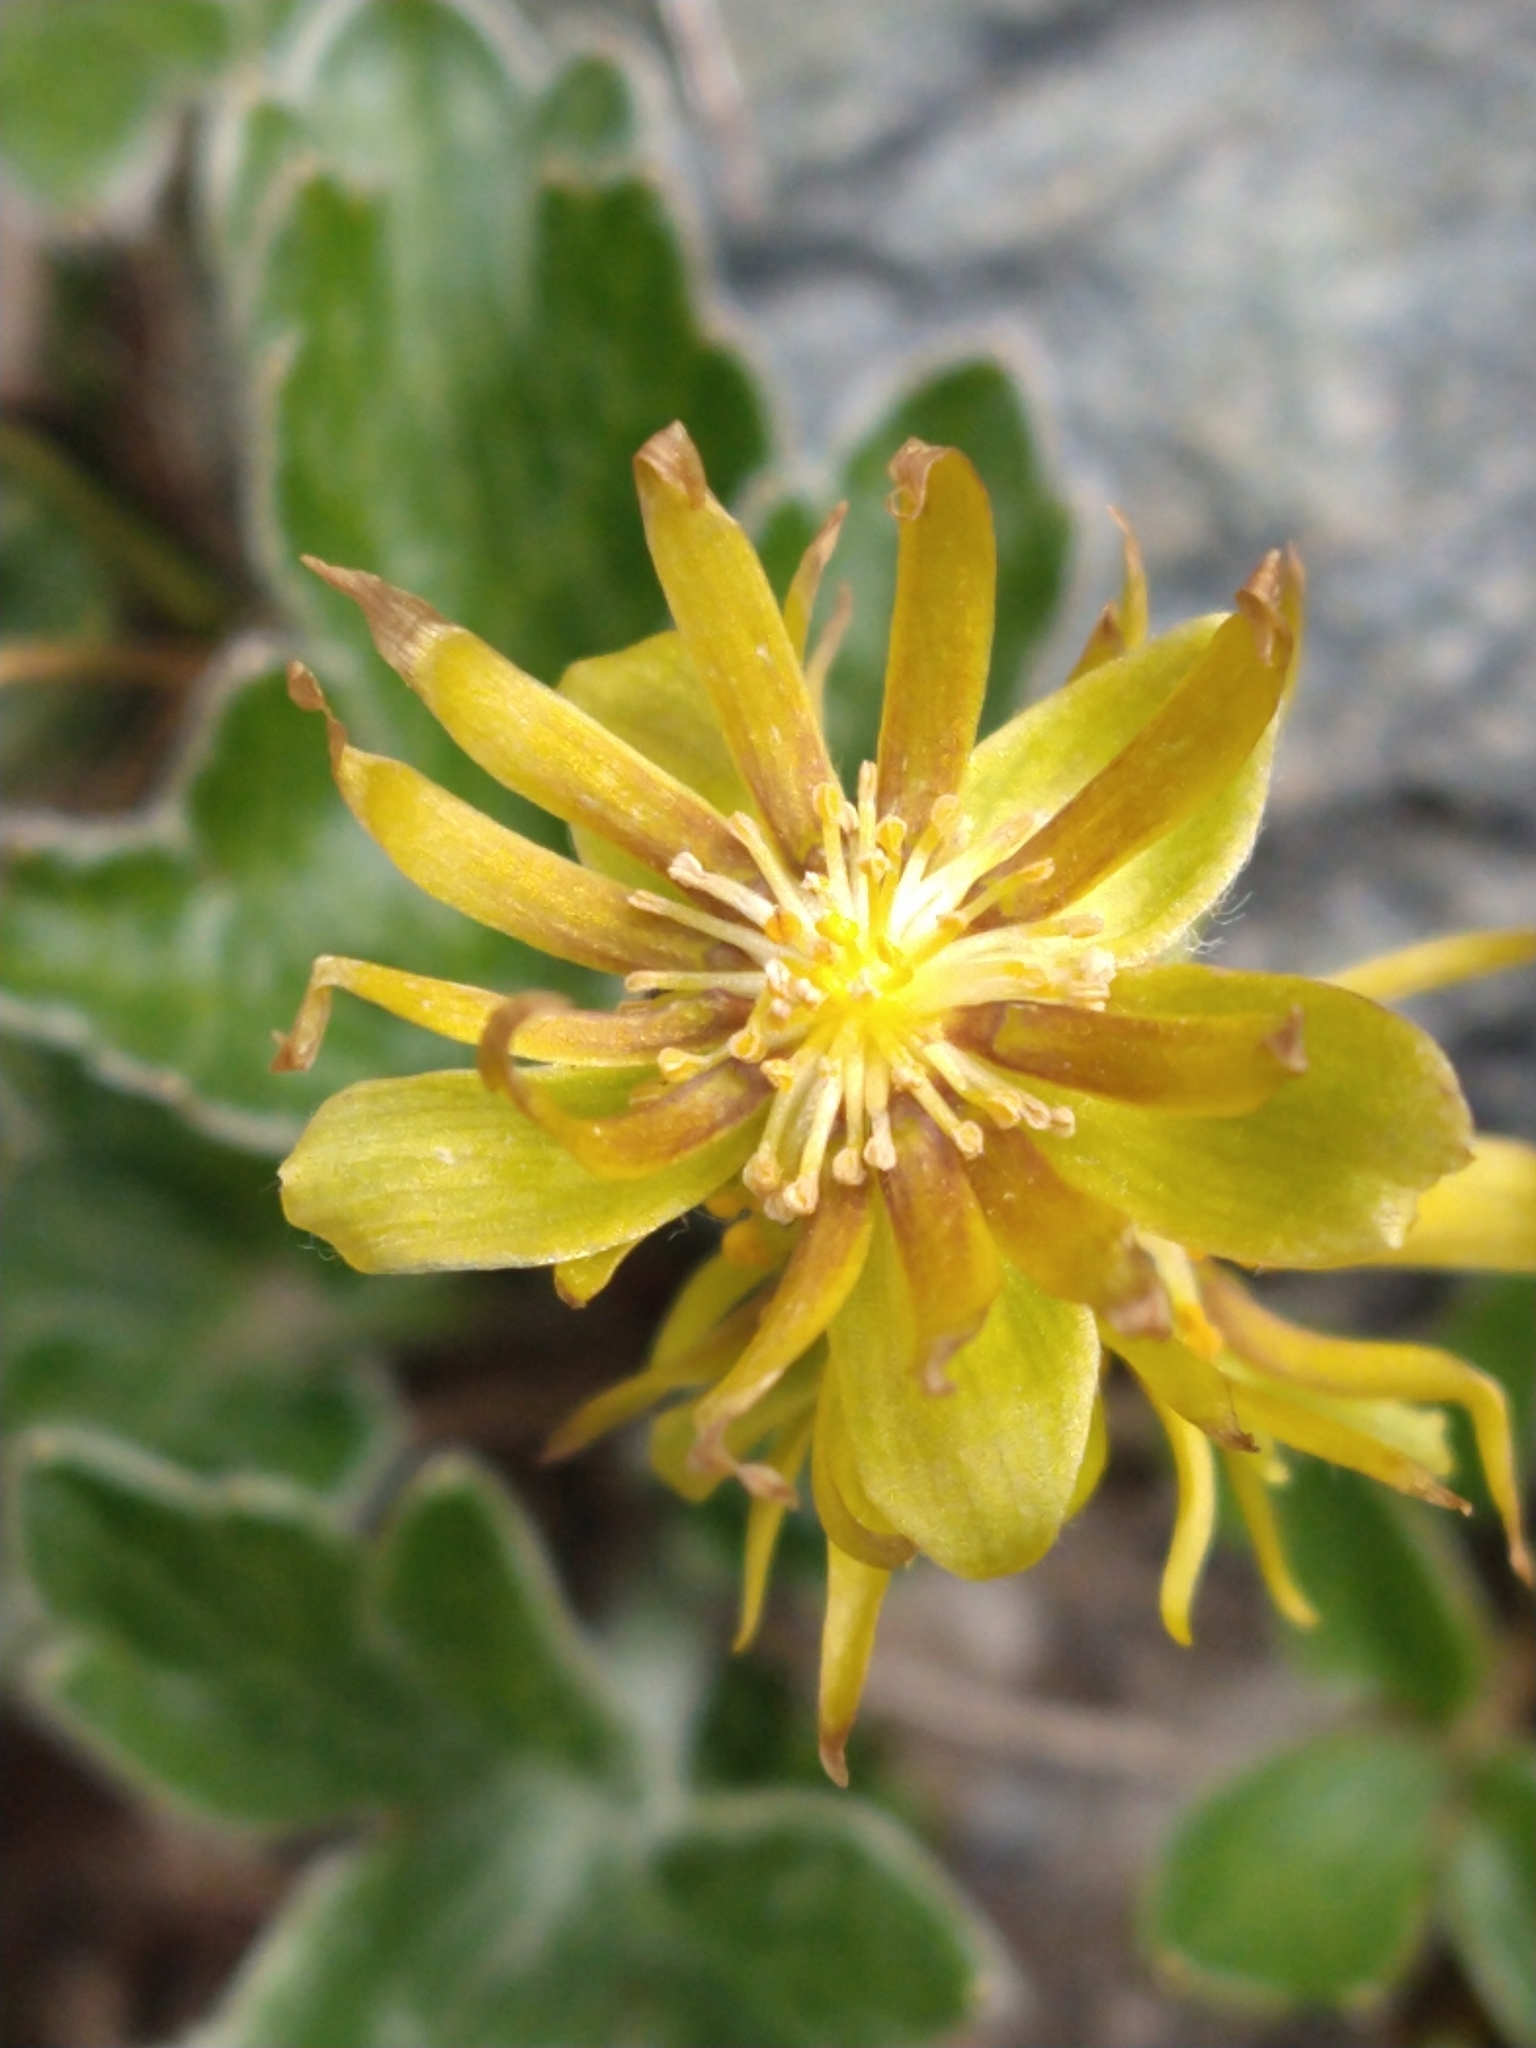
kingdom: Plantae
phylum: Tracheophyta
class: Magnoliopsida
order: Ranunculales
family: Ranunculaceae
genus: Hamadryas
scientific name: Hamadryas magellanica
